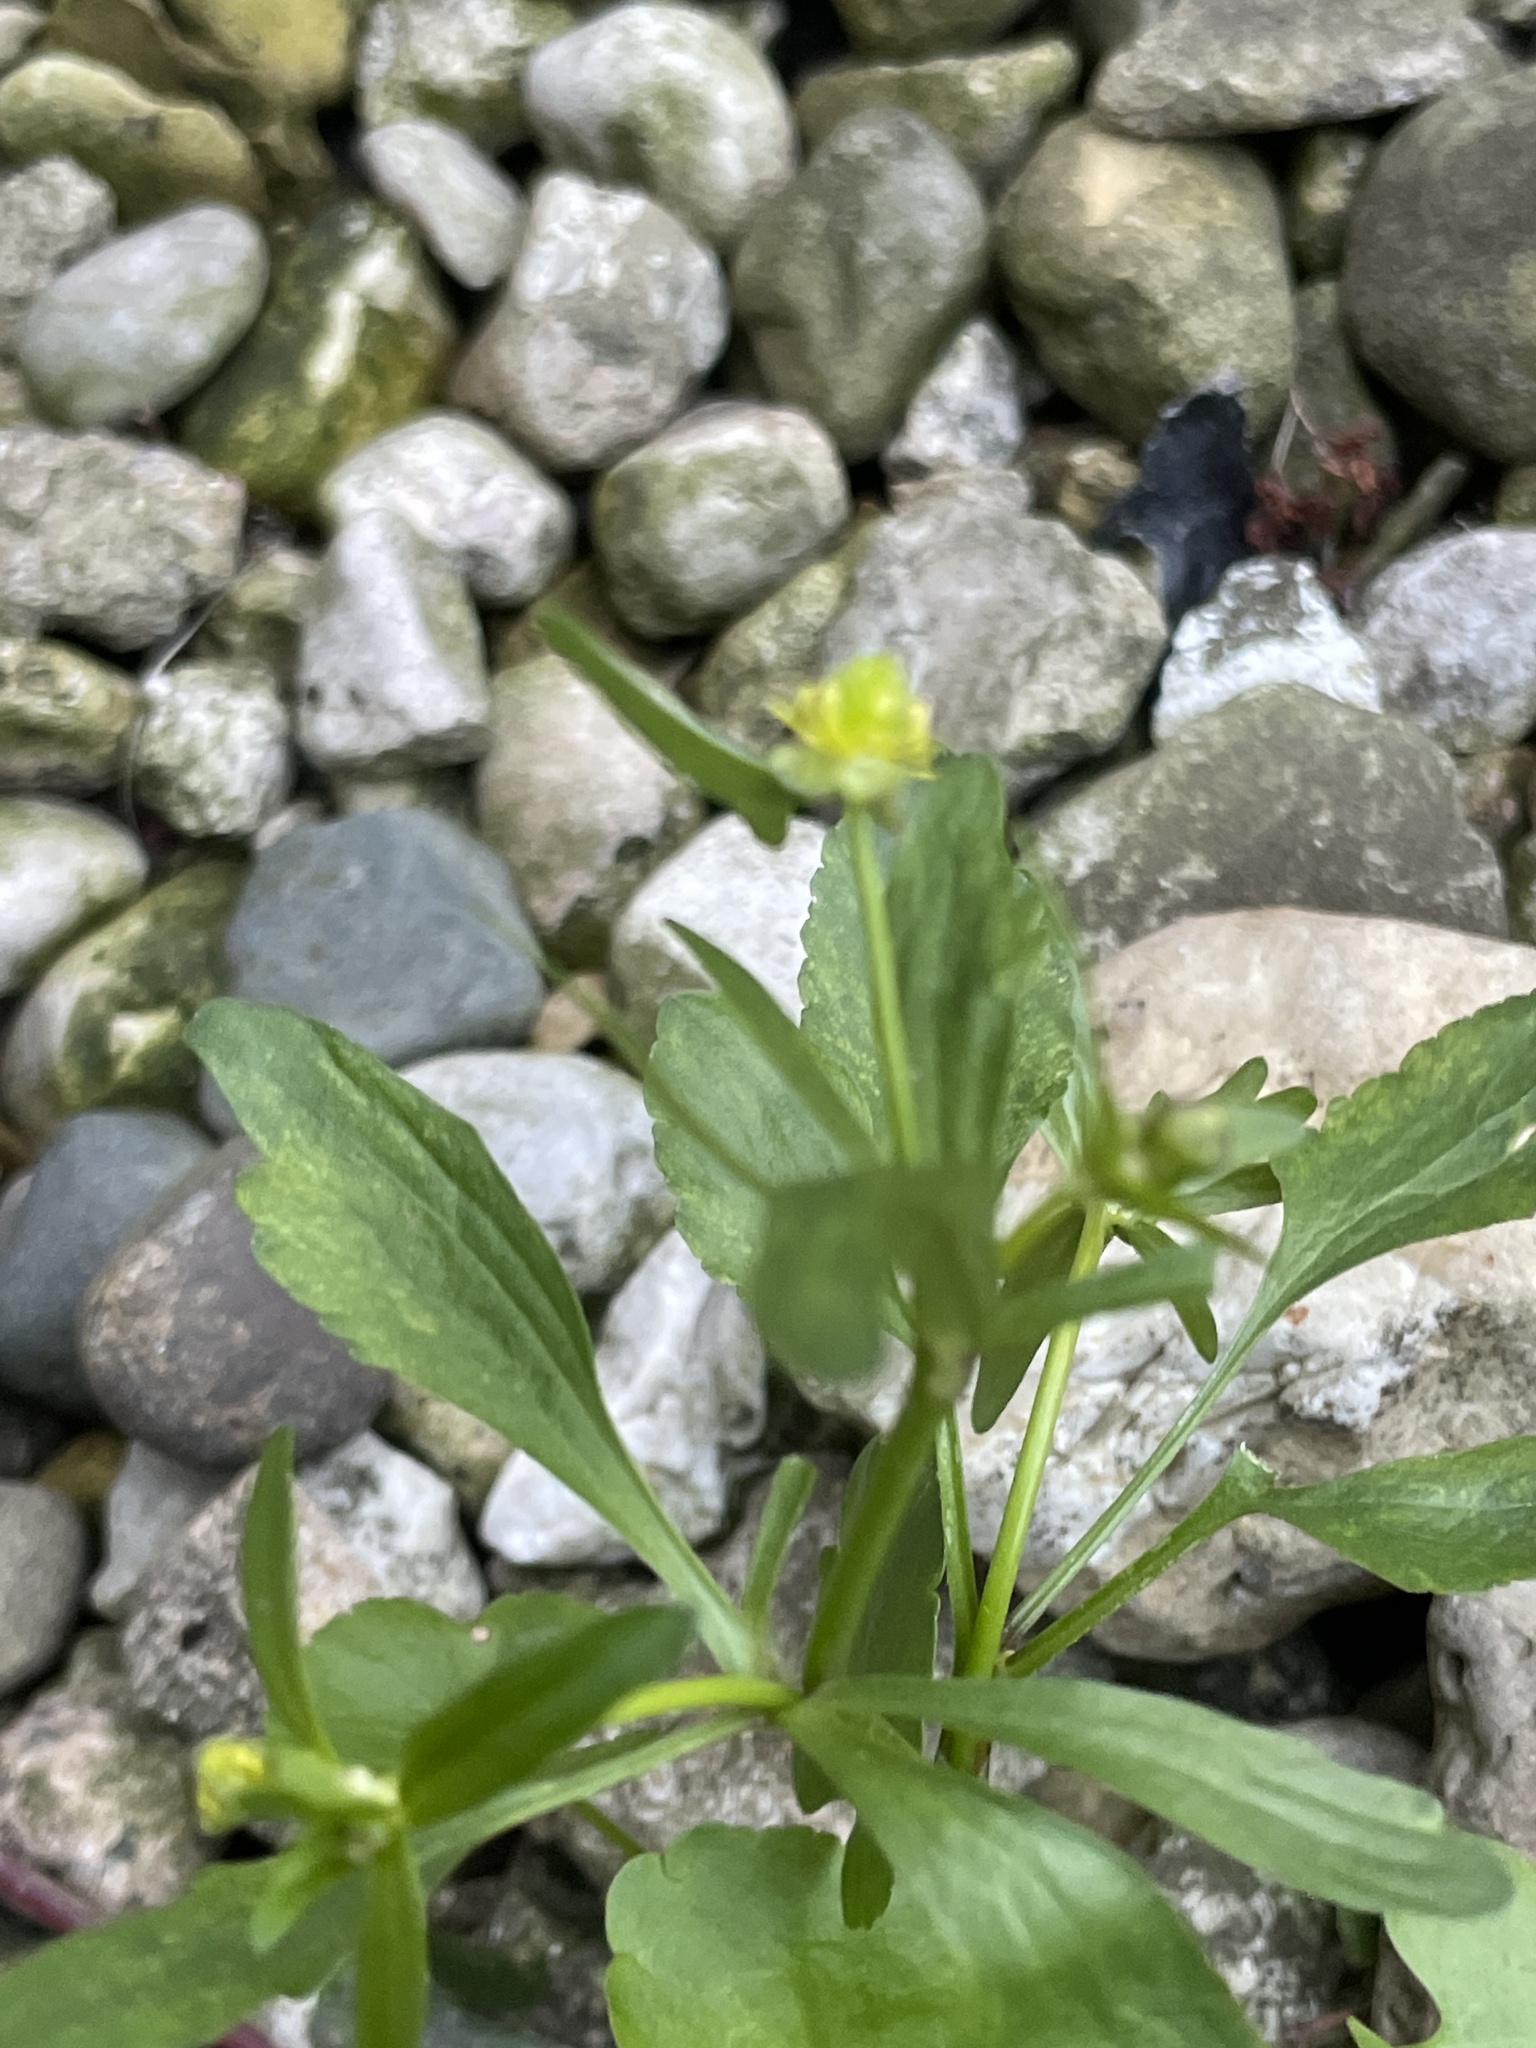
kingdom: Plantae
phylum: Tracheophyta
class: Magnoliopsida
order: Ranunculales
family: Ranunculaceae
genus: Ranunculus
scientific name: Ranunculus abortivus
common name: Early wood buttercup
